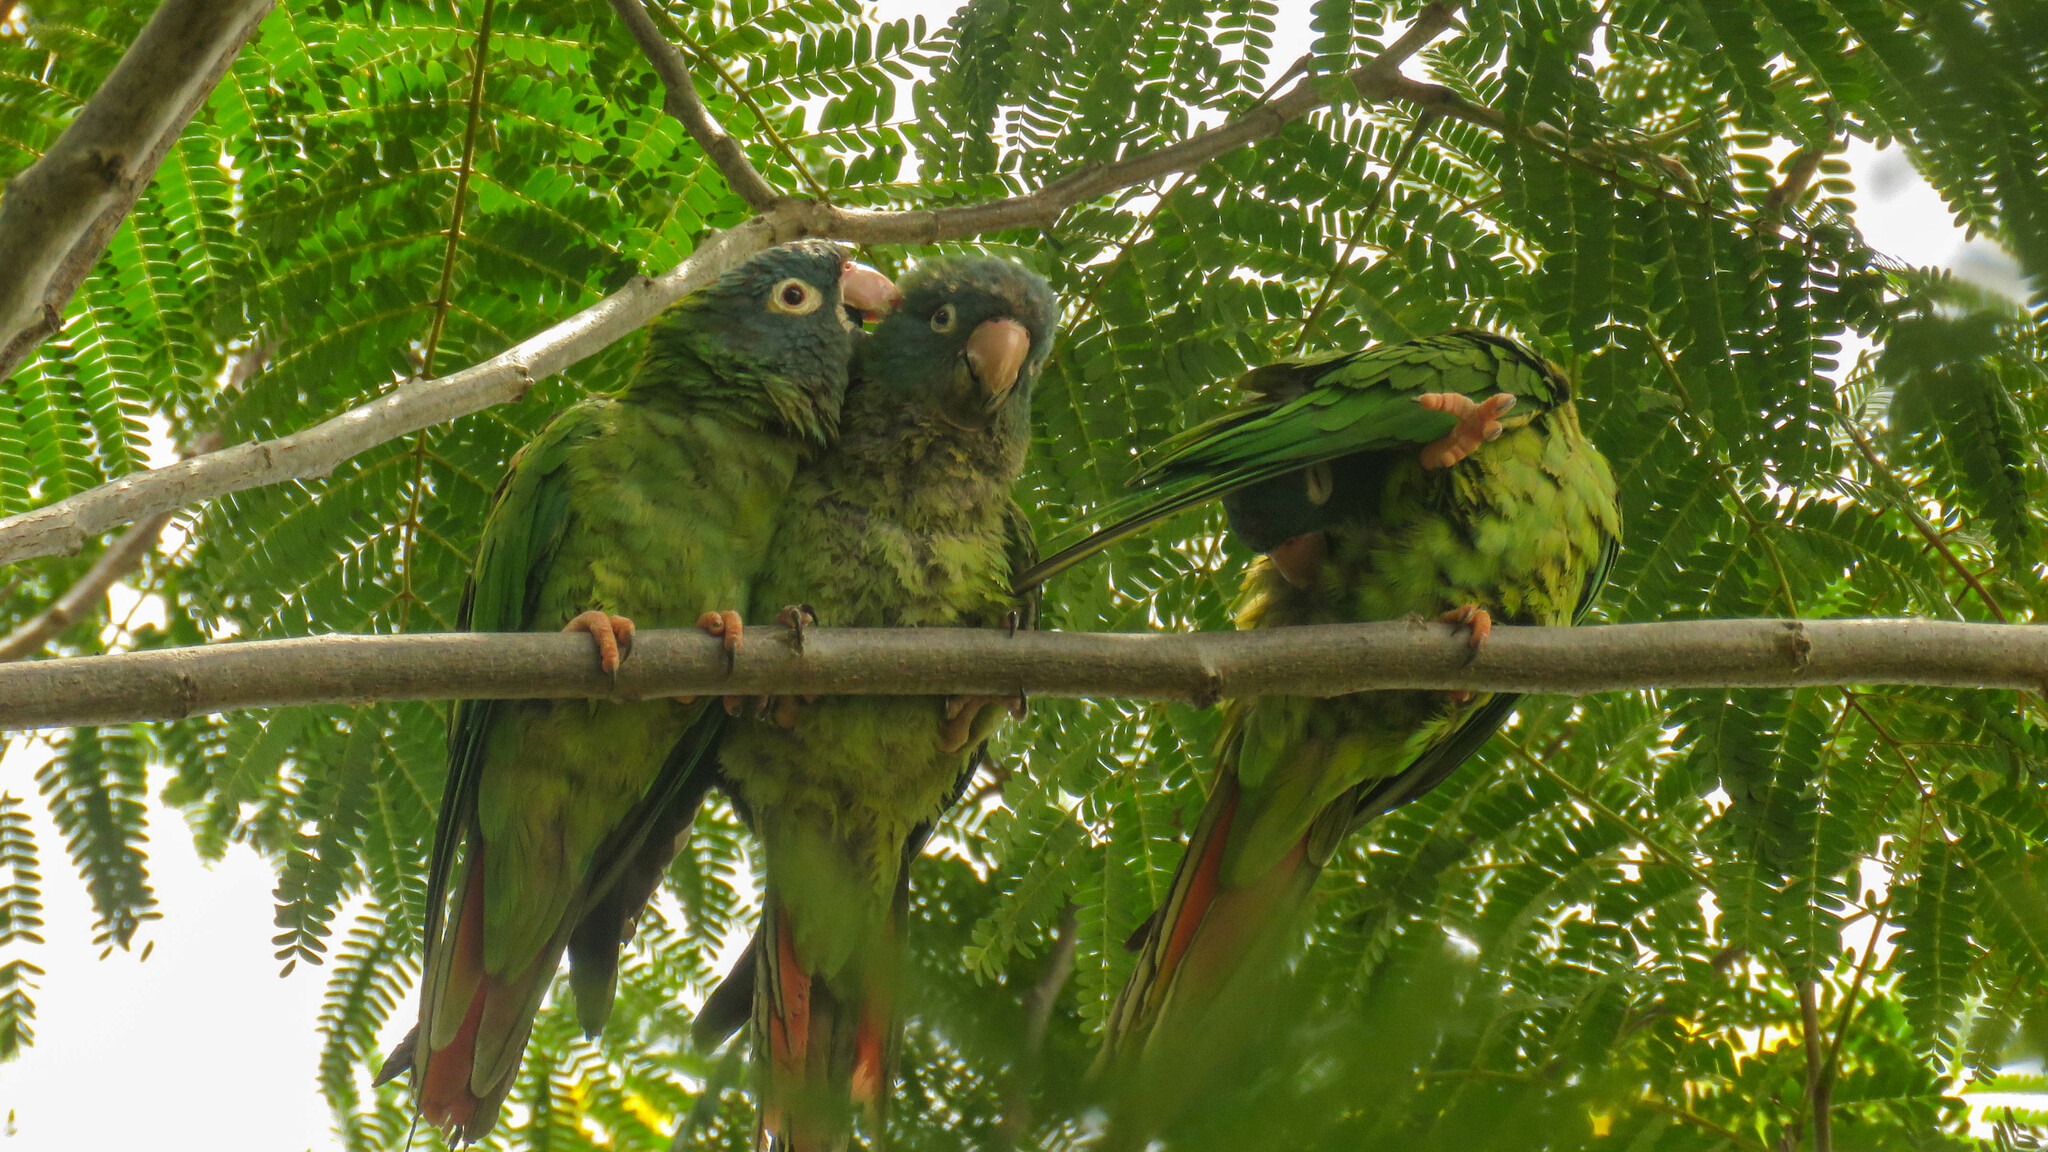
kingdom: Animalia
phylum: Chordata
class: Aves
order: Psittaciformes
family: Psittacidae
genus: Aratinga
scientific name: Aratinga acuticaudata
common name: Blue-crowned parakeet
